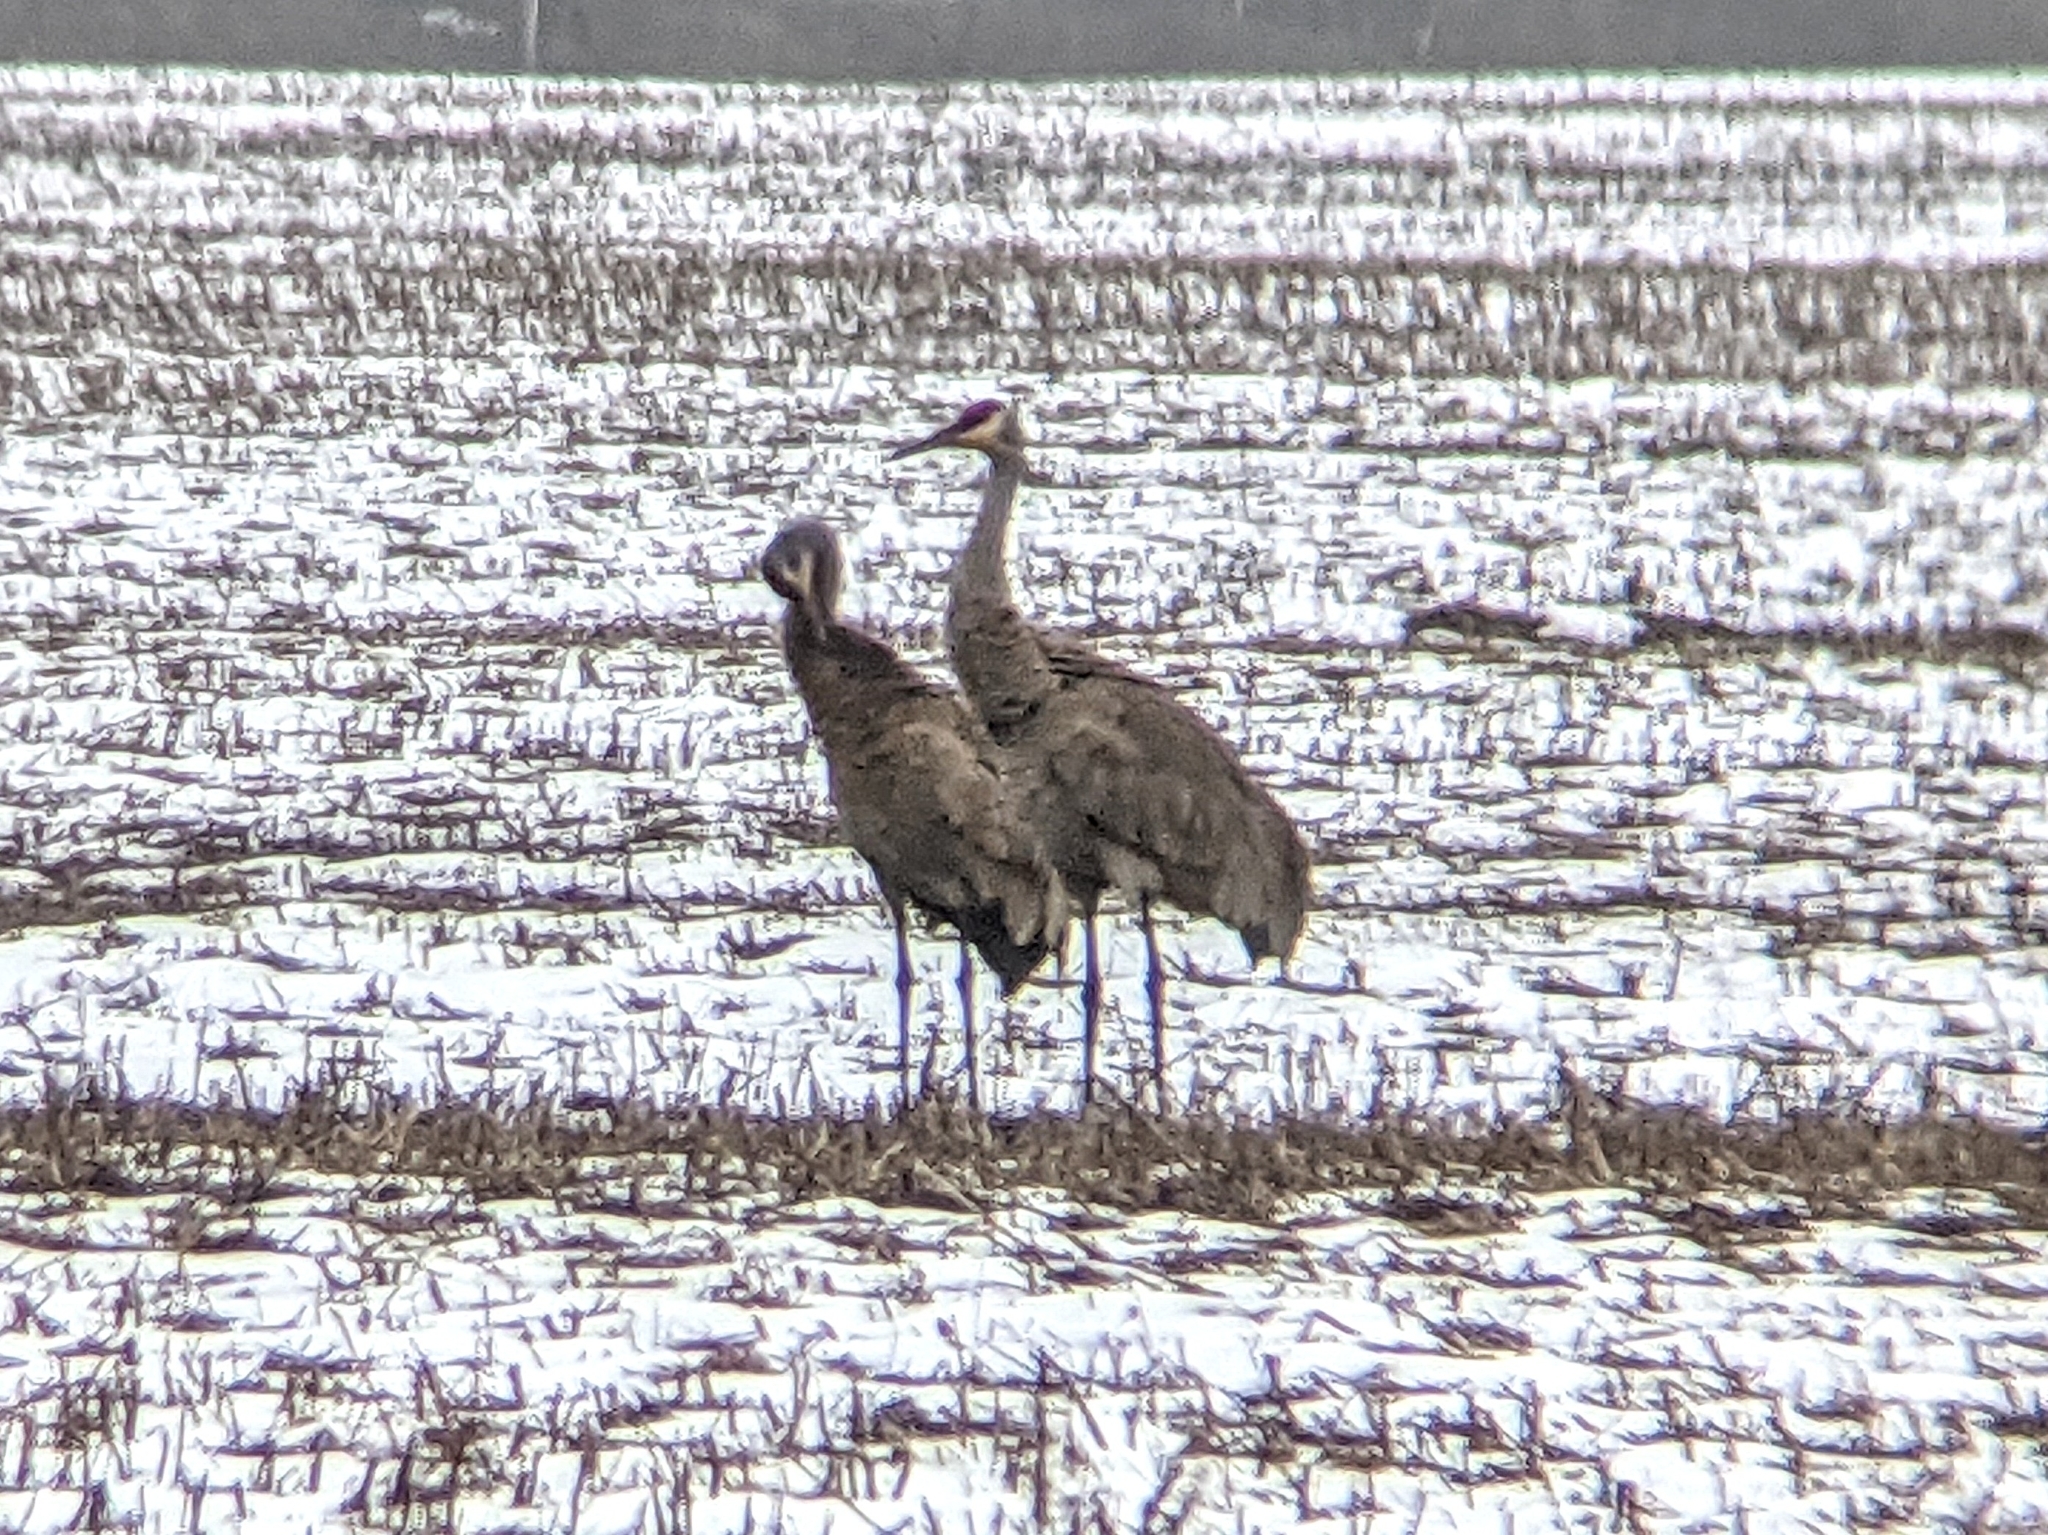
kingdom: Animalia
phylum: Chordata
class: Aves
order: Gruiformes
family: Gruidae
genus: Grus
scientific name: Grus canadensis
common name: Sandhill crane
